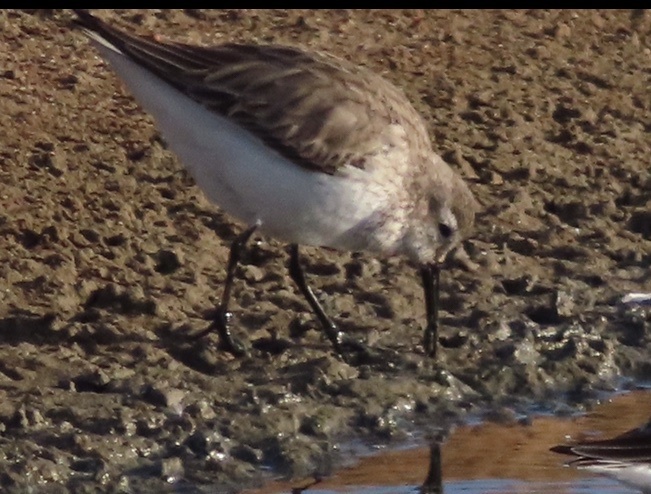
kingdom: Animalia
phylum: Chordata
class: Aves
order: Charadriiformes
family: Scolopacidae
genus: Calidris
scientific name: Calidris alpina
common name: Dunlin
